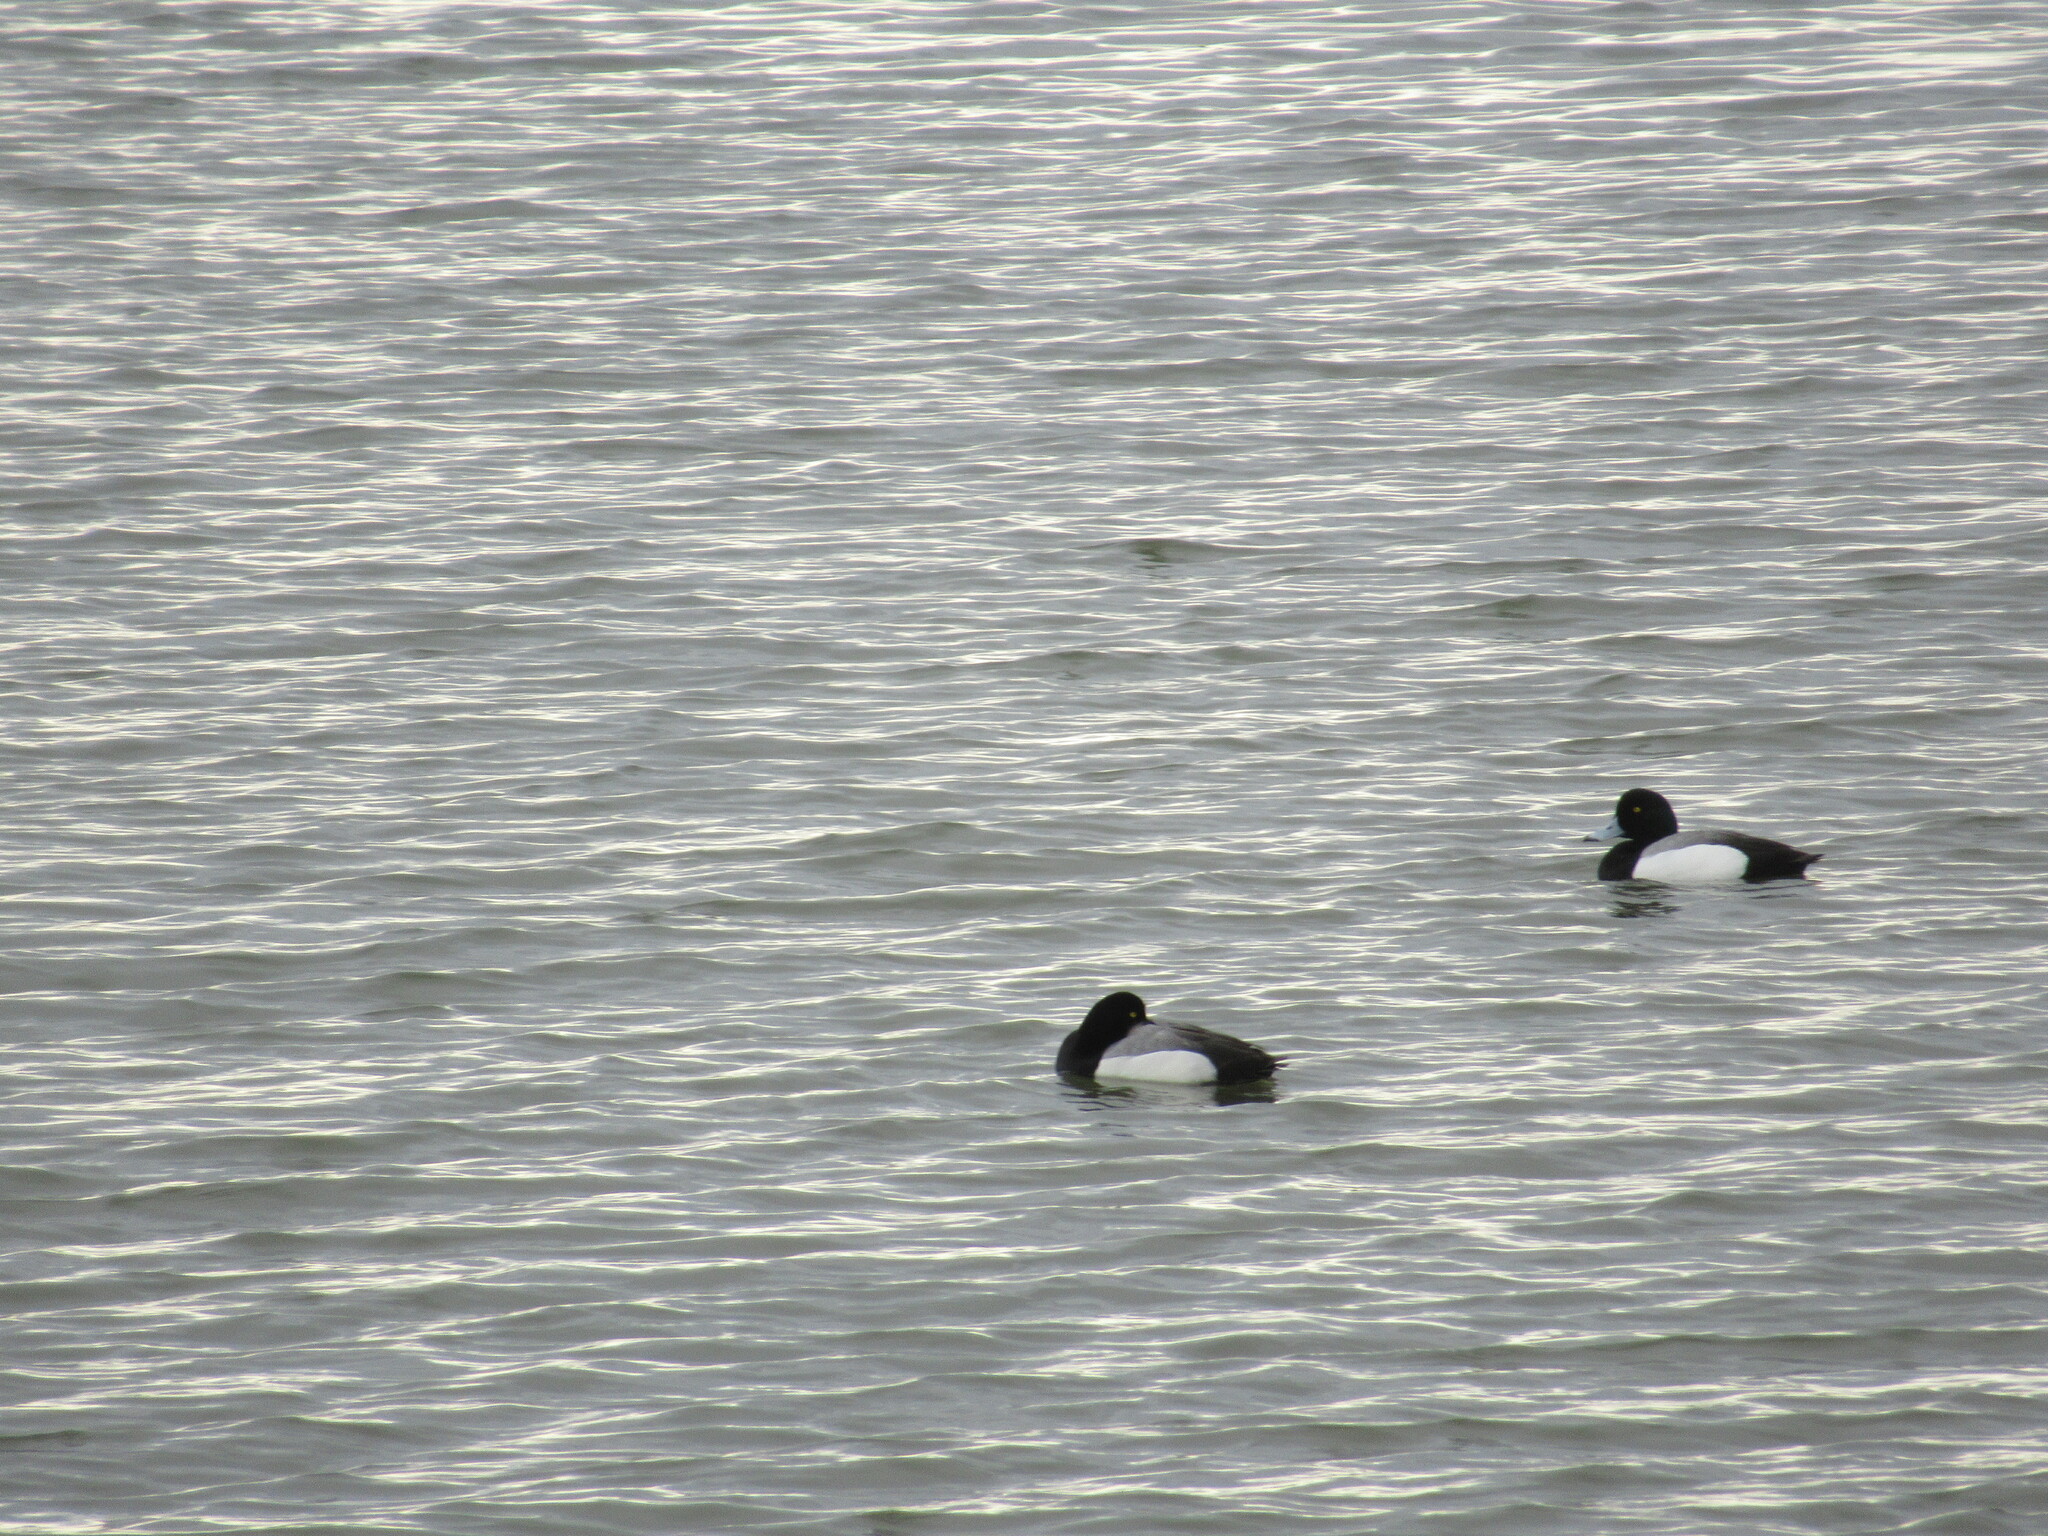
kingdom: Animalia
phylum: Chordata
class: Aves
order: Anseriformes
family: Anatidae
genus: Aythya
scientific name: Aythya marila
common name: Greater scaup
